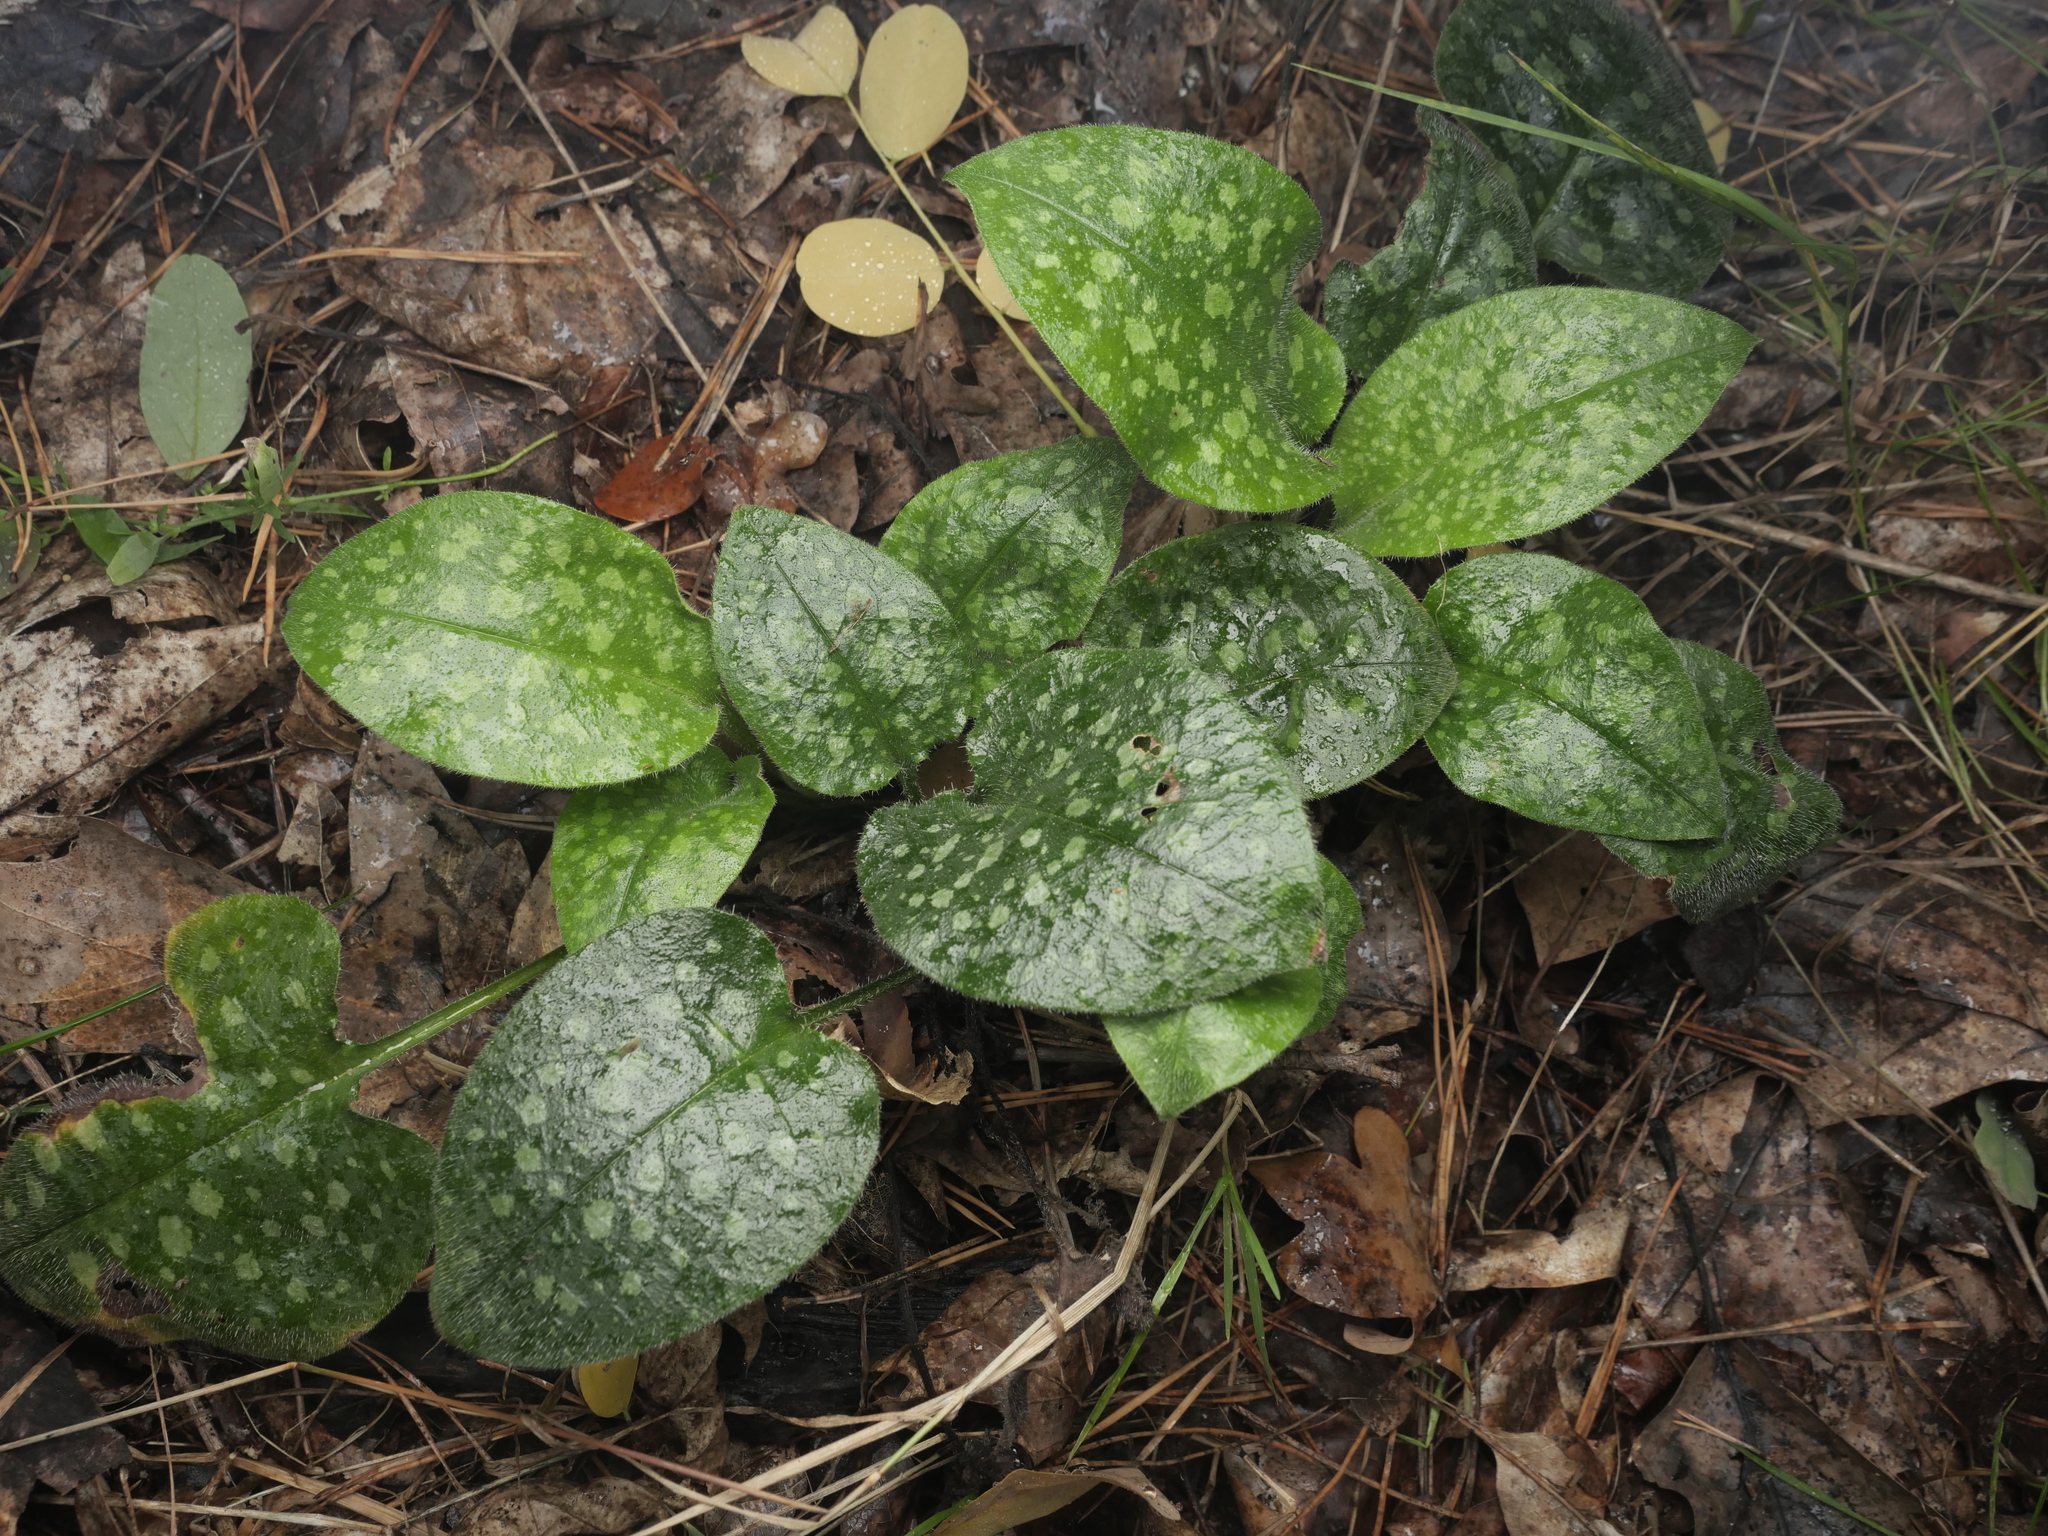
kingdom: Plantae
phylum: Tracheophyta
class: Magnoliopsida
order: Boraginales
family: Boraginaceae
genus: Pulmonaria
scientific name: Pulmonaria saccharata
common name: Bethlehem lungwort
